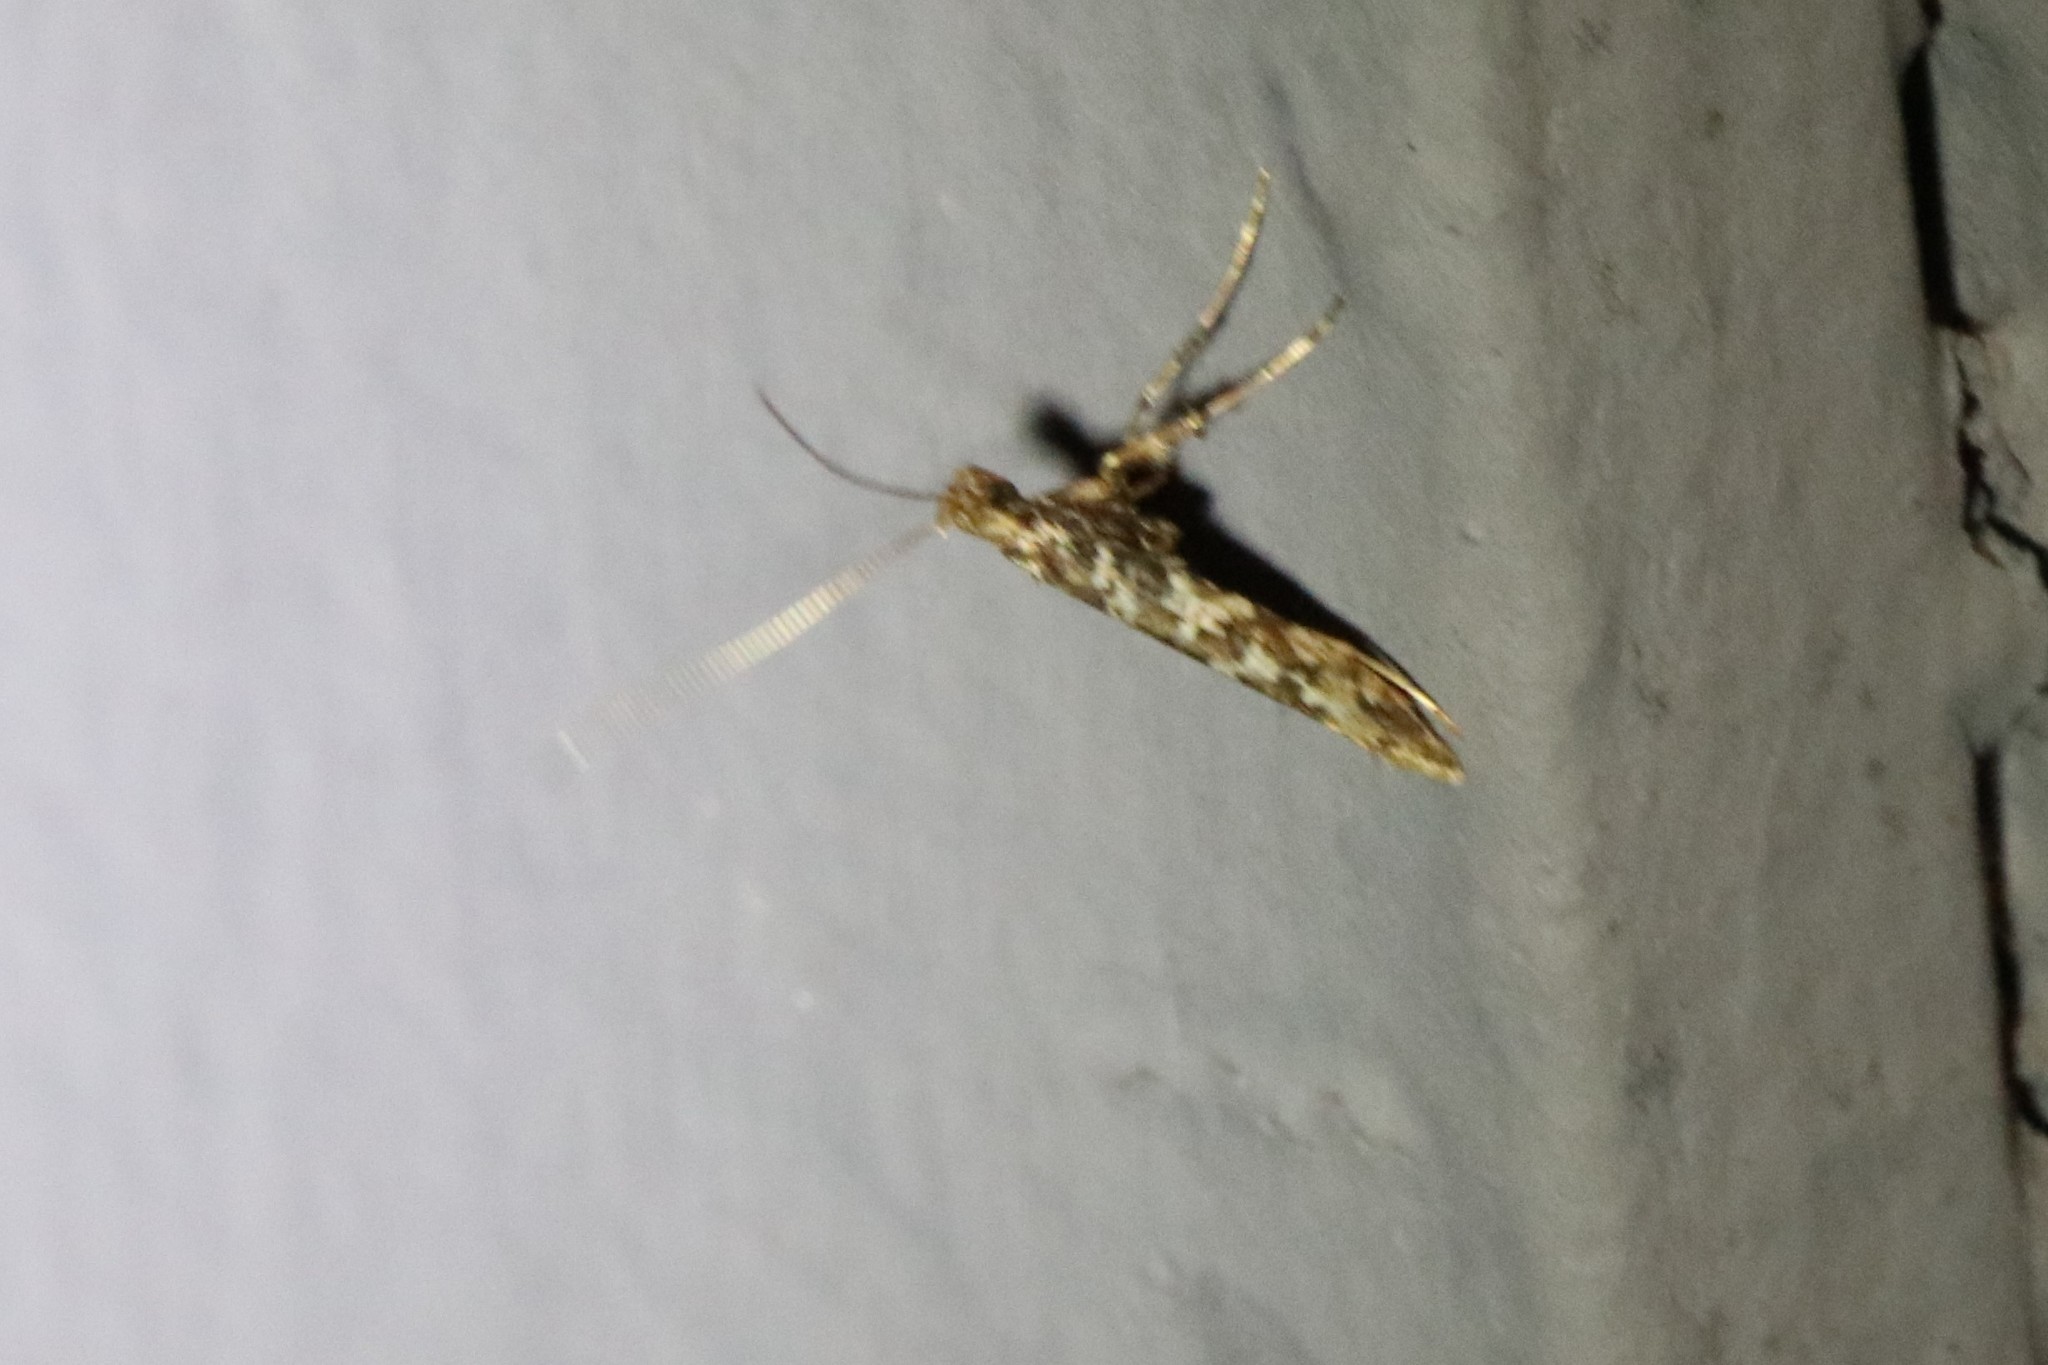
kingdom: Animalia
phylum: Arthropoda
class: Insecta
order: Lepidoptera
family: Gracillariidae
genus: Caloptilia
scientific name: Caloptilia serotinella
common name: Cherry leafroller moth
